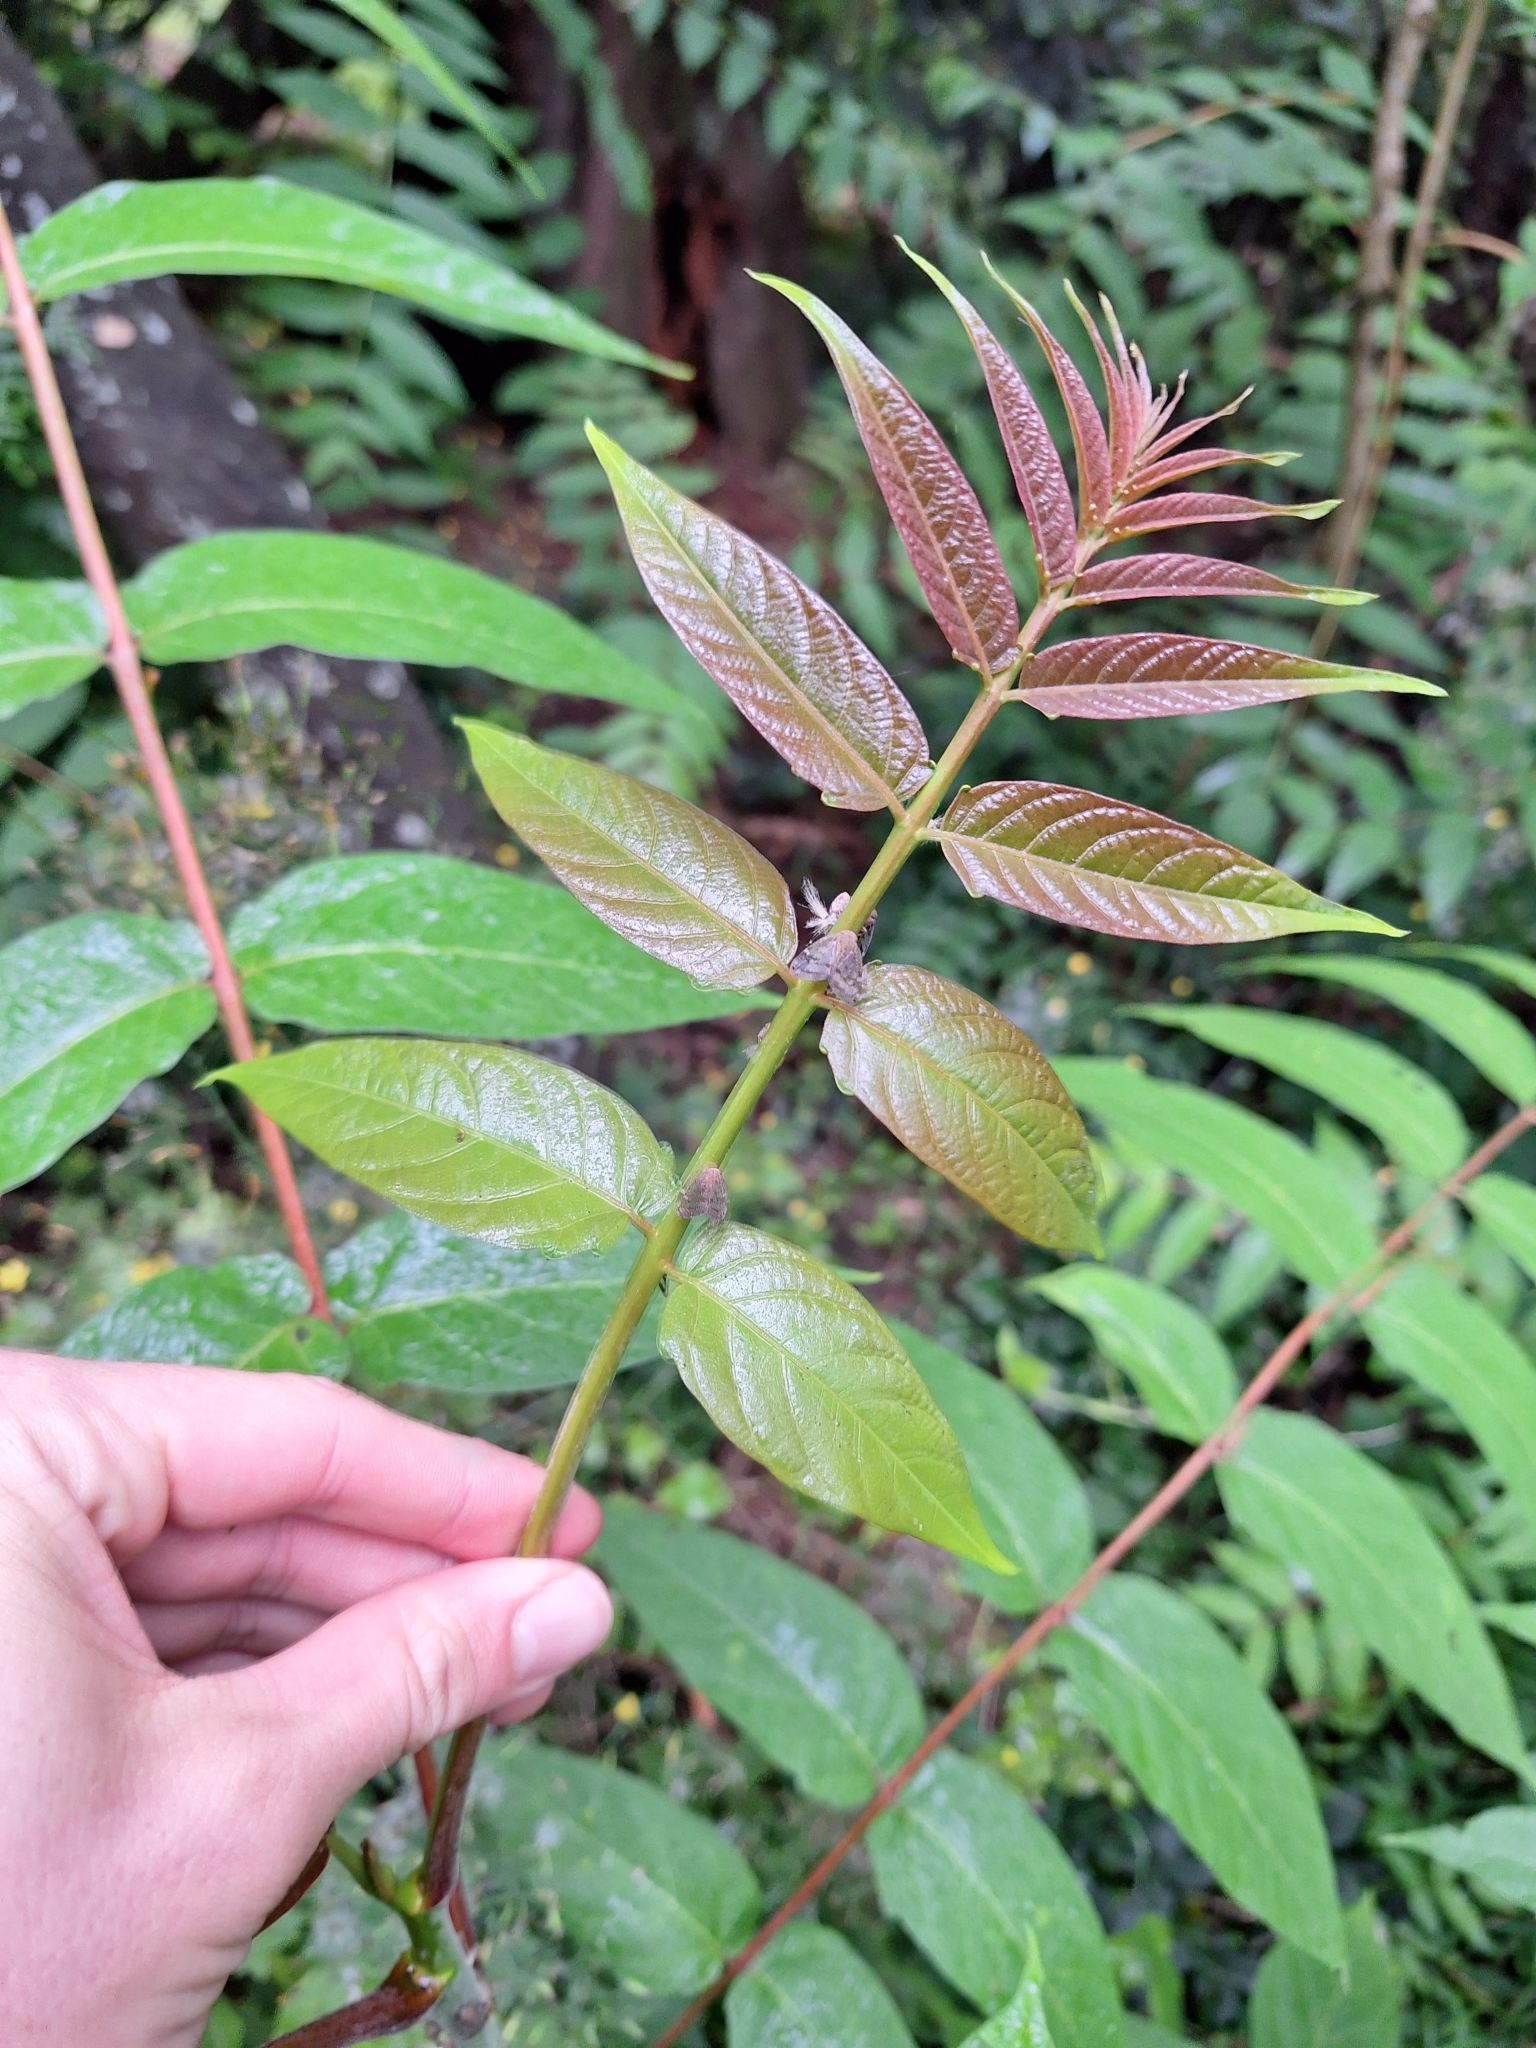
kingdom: Plantae
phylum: Tracheophyta
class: Magnoliopsida
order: Sapindales
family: Simaroubaceae
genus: Ailanthus
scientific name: Ailanthus altissima
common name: Tree-of-heaven
